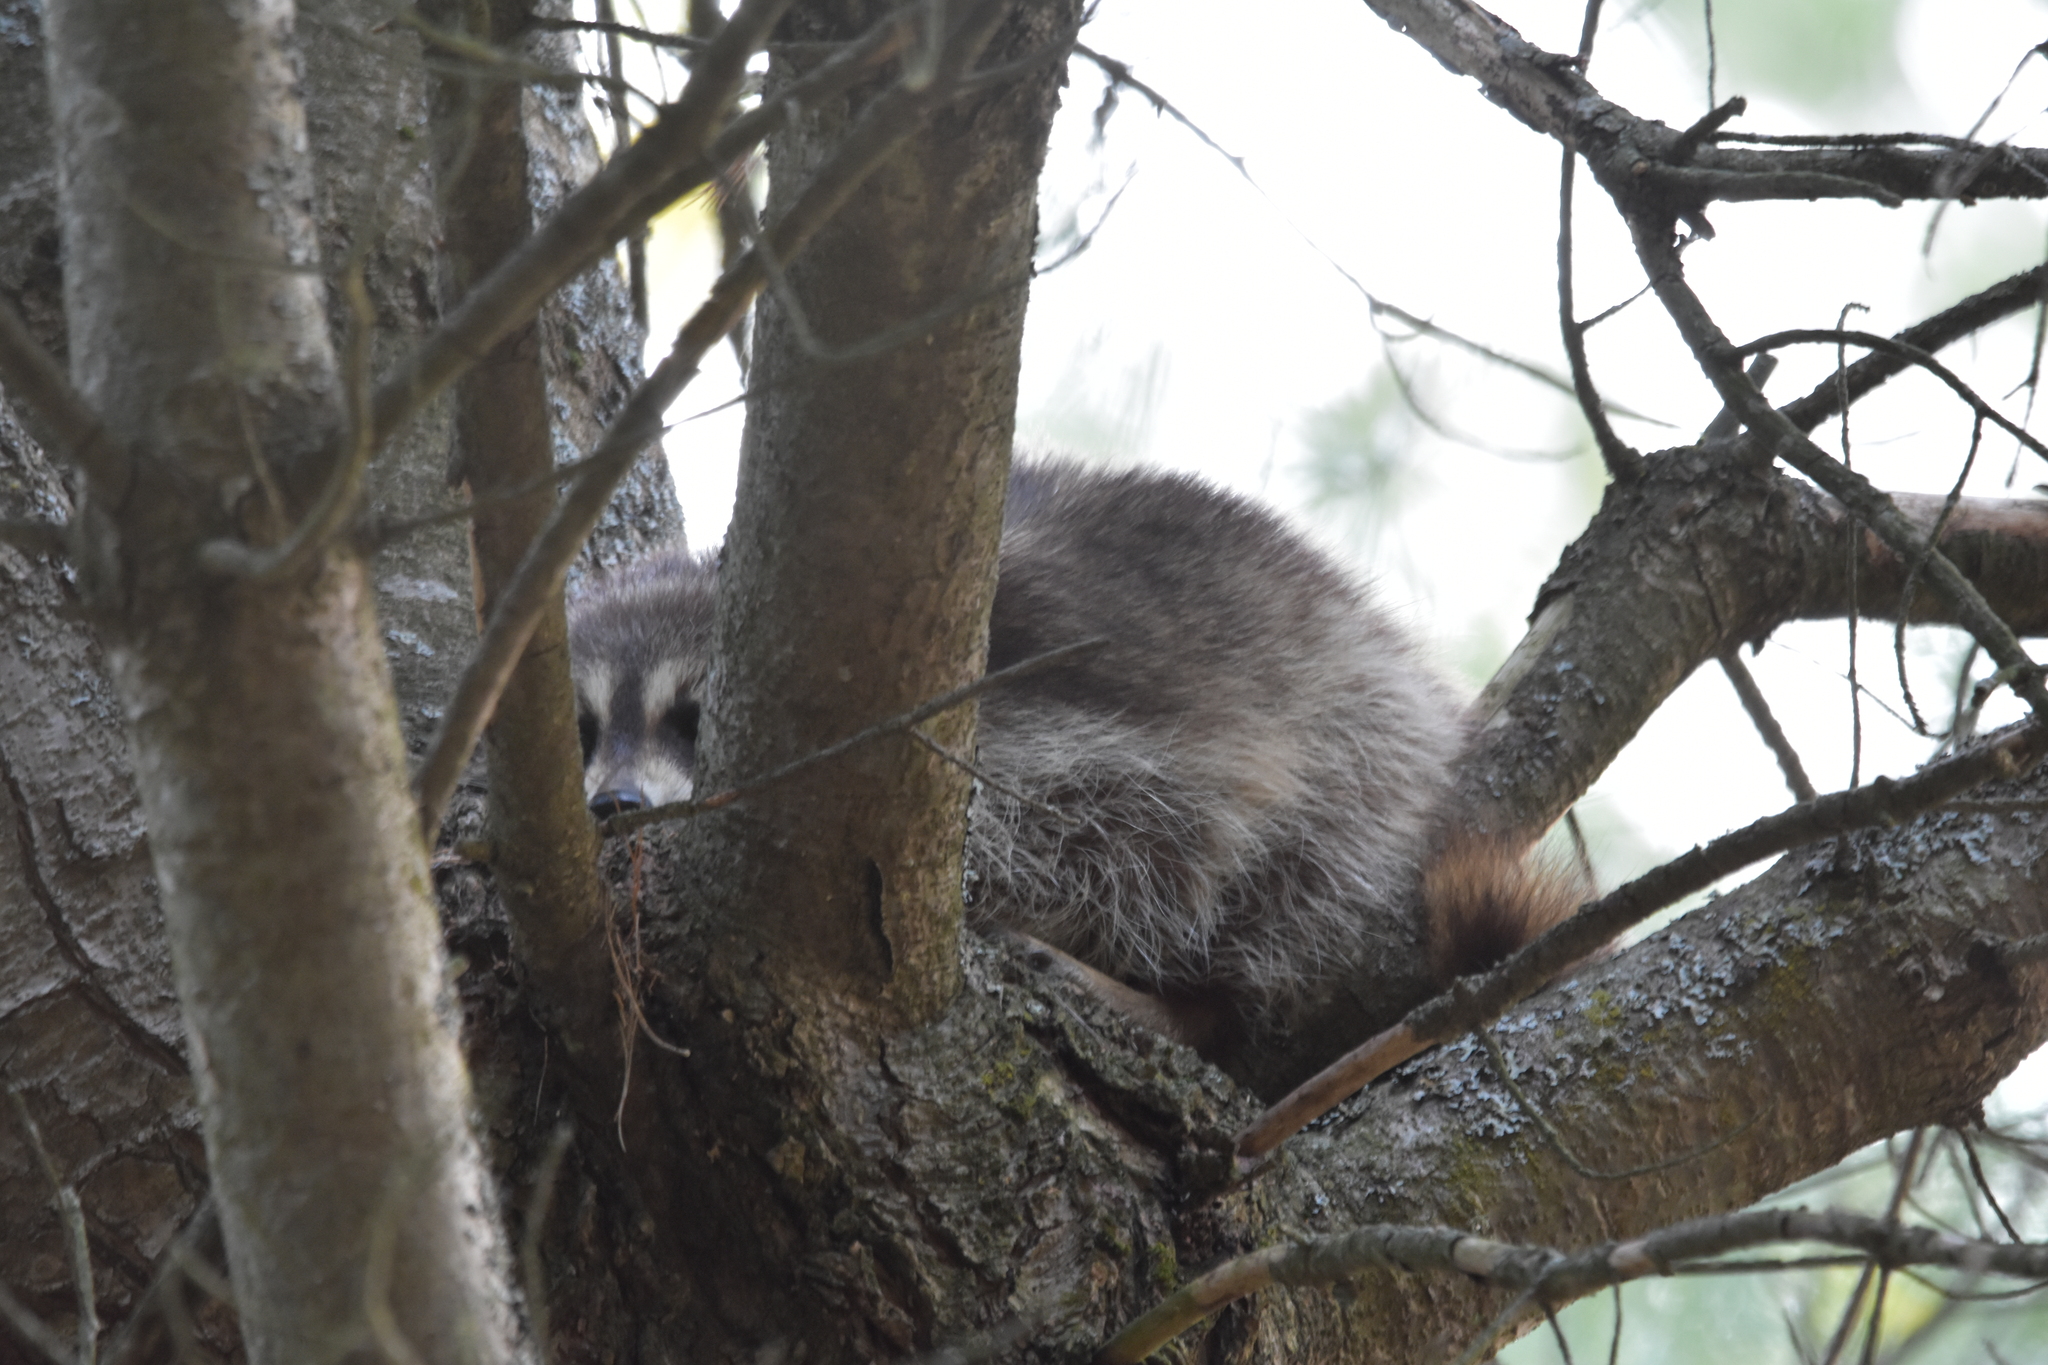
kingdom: Animalia
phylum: Chordata
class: Mammalia
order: Carnivora
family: Procyonidae
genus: Procyon
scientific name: Procyon lotor
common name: Raccoon
